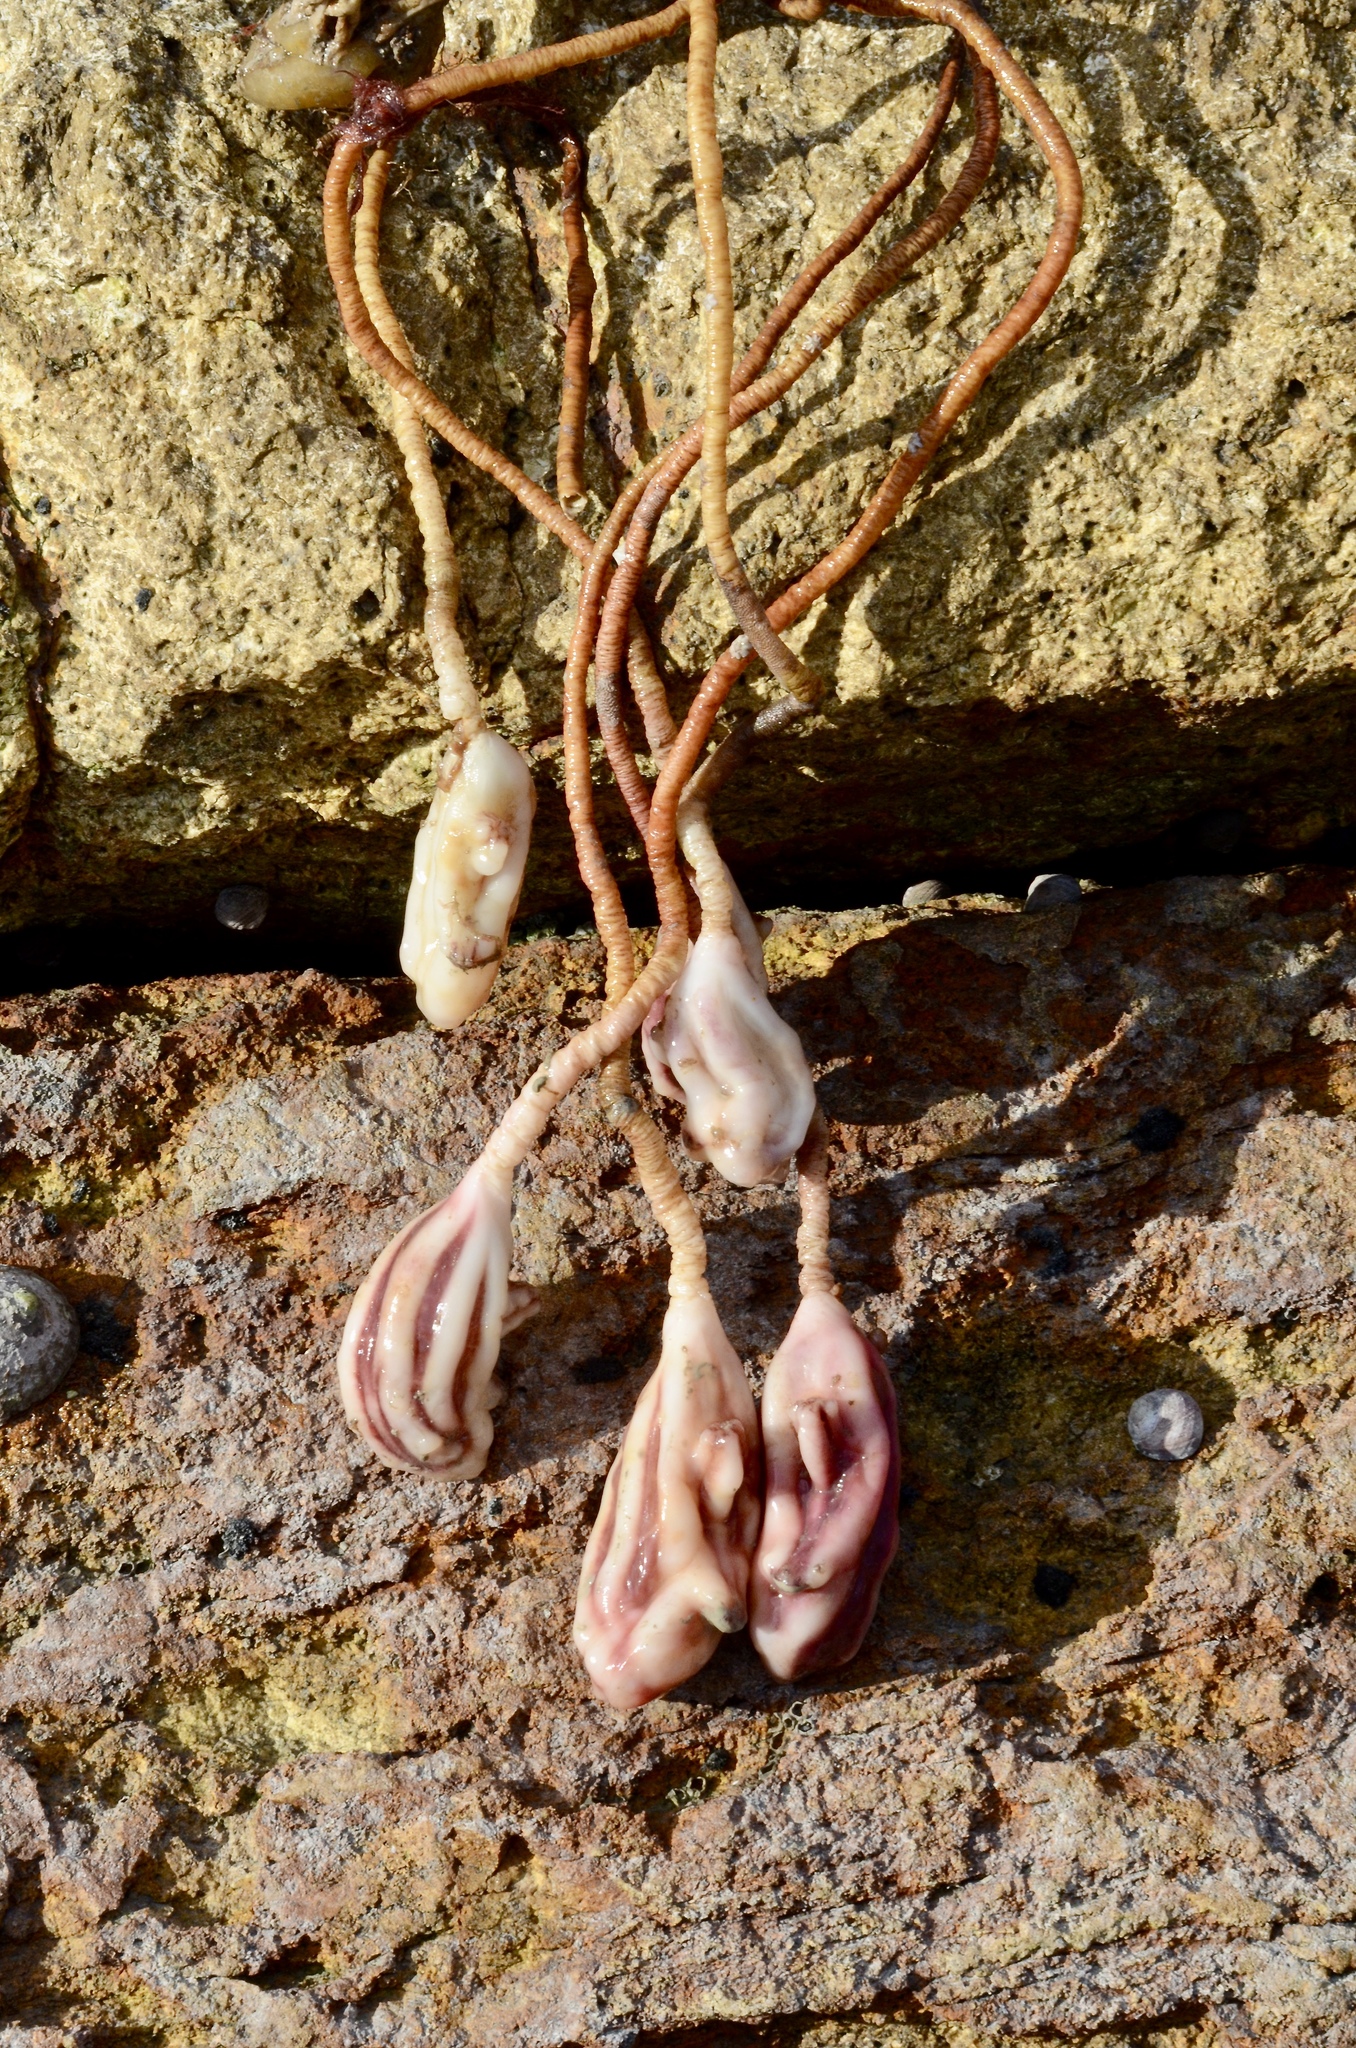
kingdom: Animalia
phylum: Chordata
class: Ascidiacea
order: Stolidobranchia
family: Pyuridae
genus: Pyura
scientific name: Pyura pachydermatina
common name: Sea tulip
